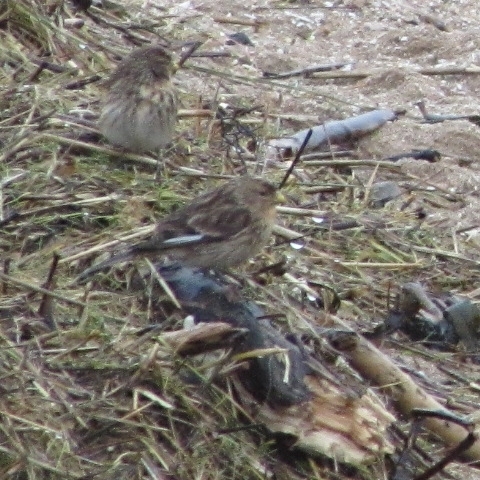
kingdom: Animalia
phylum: Chordata
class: Aves
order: Passeriformes
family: Fringillidae
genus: Linaria
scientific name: Linaria flavirostris
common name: Twite
